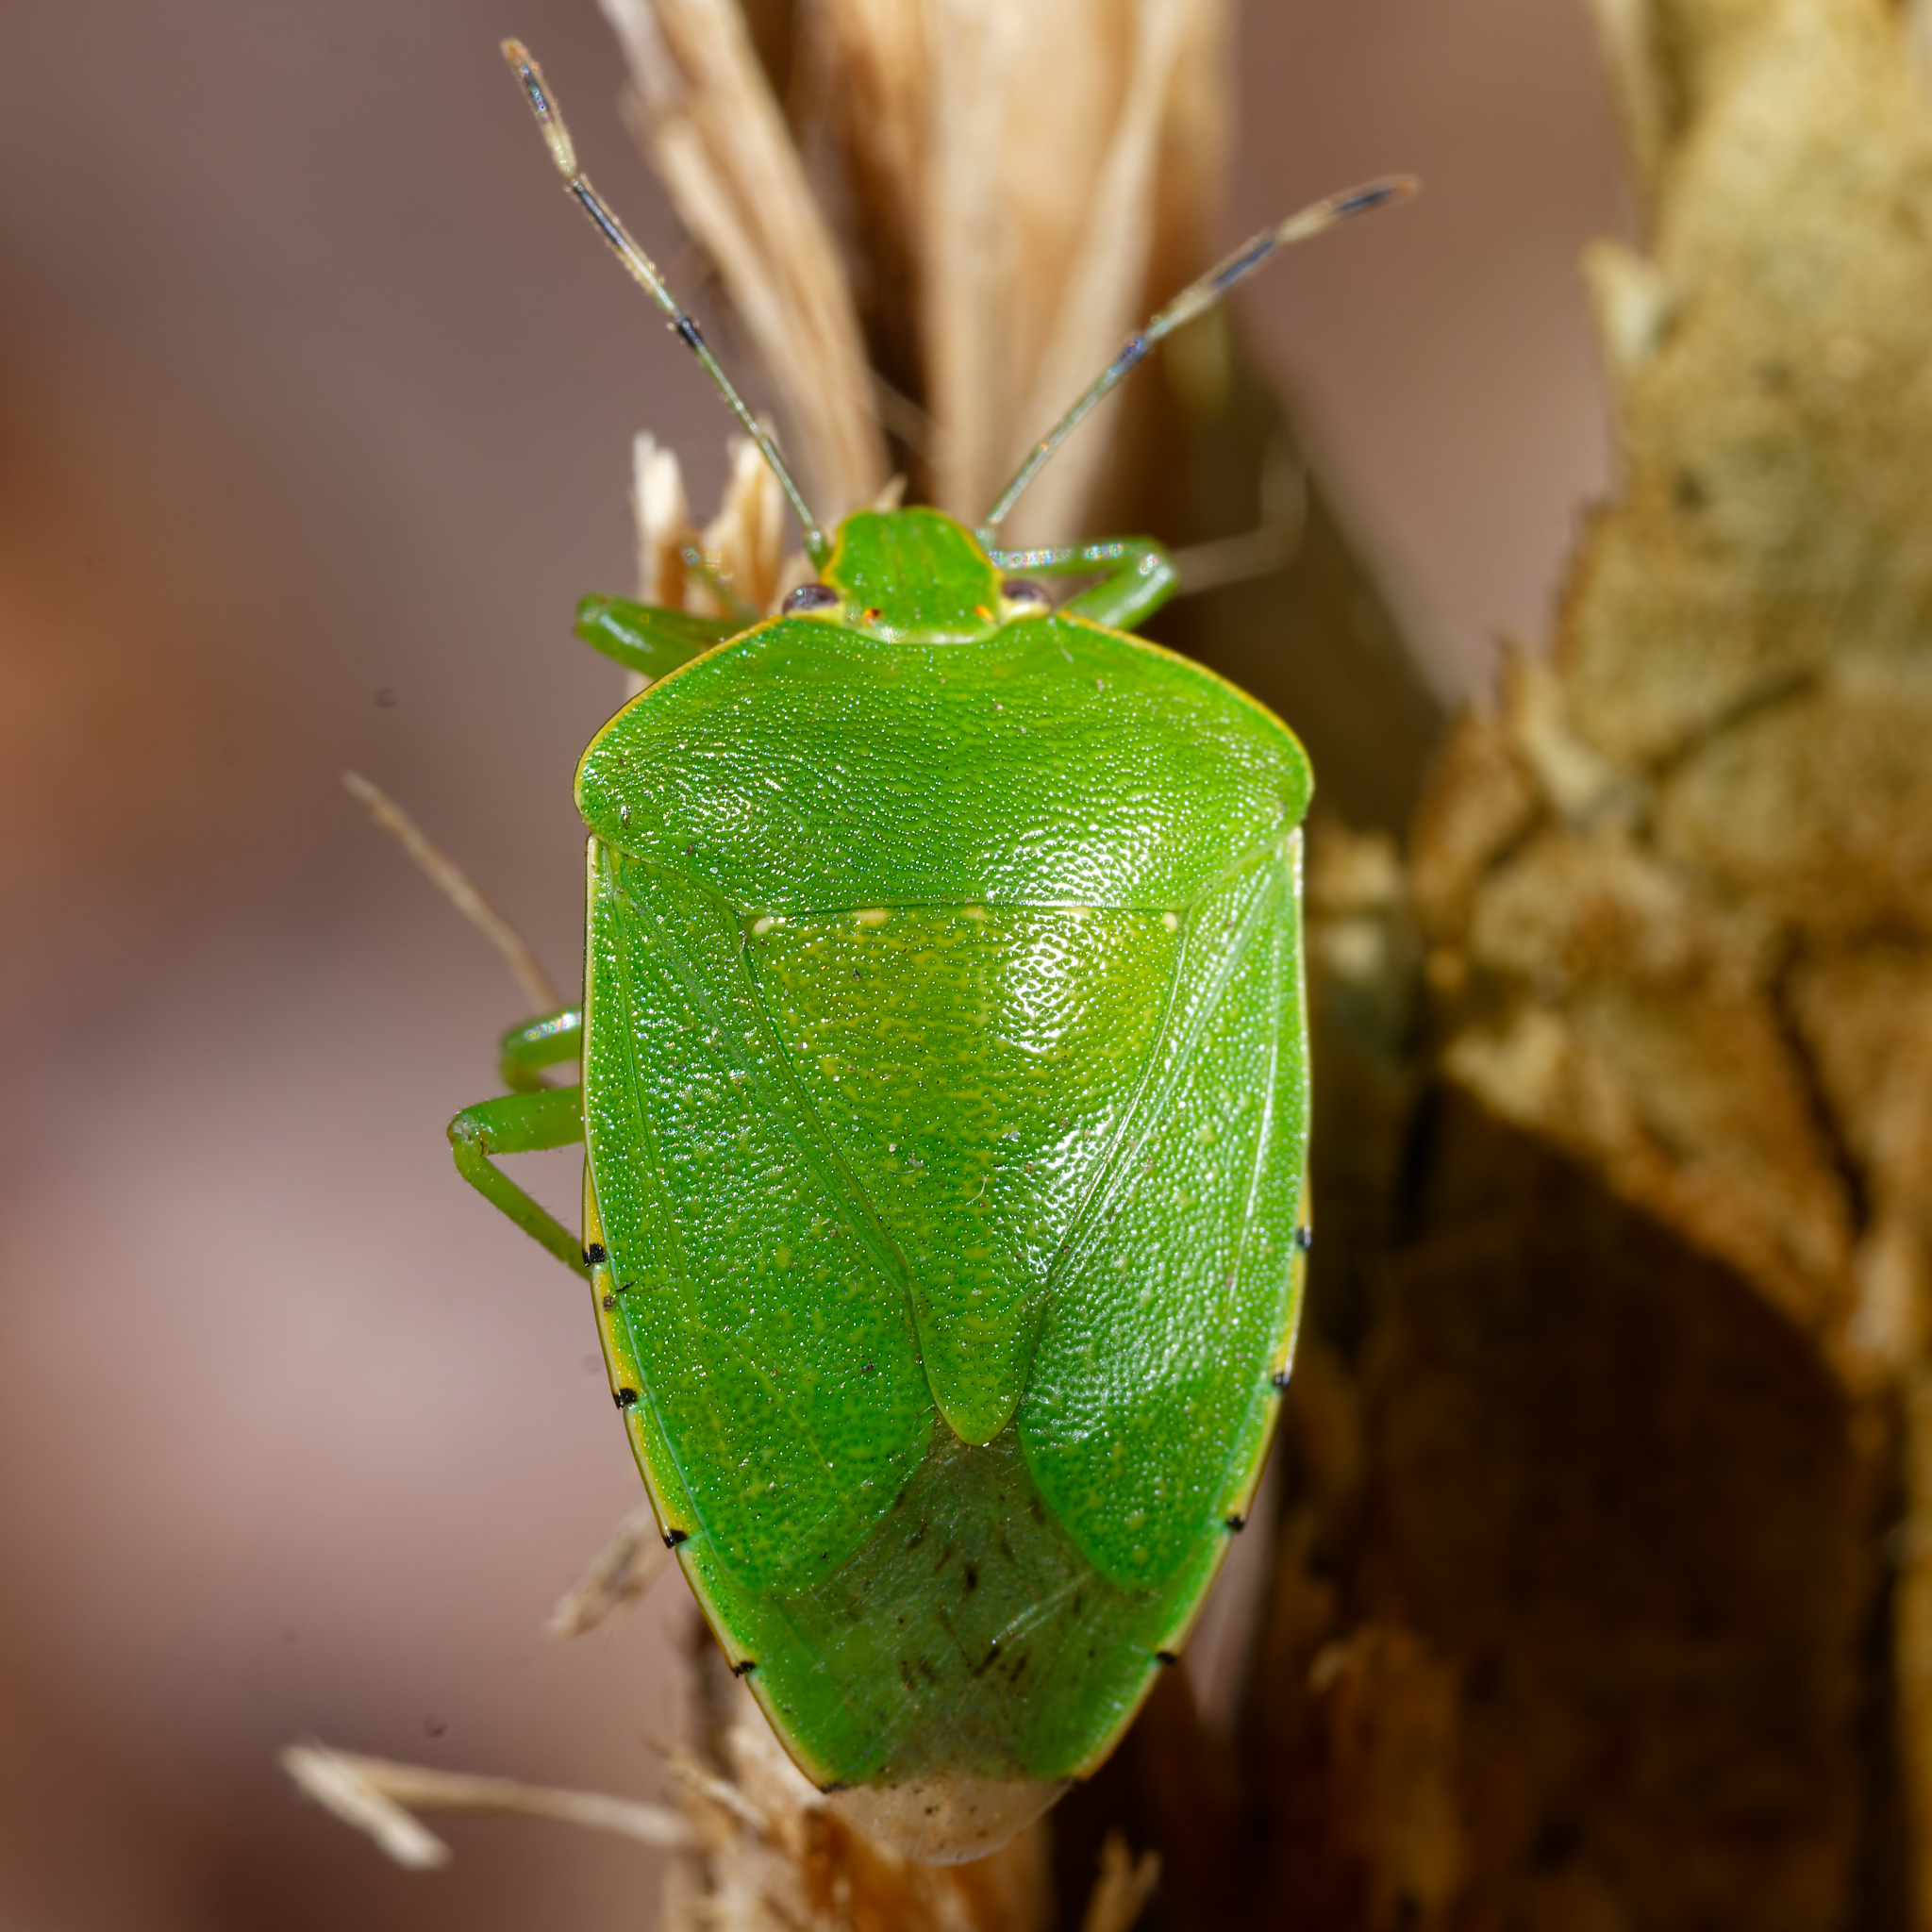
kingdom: Animalia
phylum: Arthropoda
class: Insecta
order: Hemiptera
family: Pentatomidae
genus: Chinavia
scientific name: Chinavia hilaris
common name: Green stink bug
